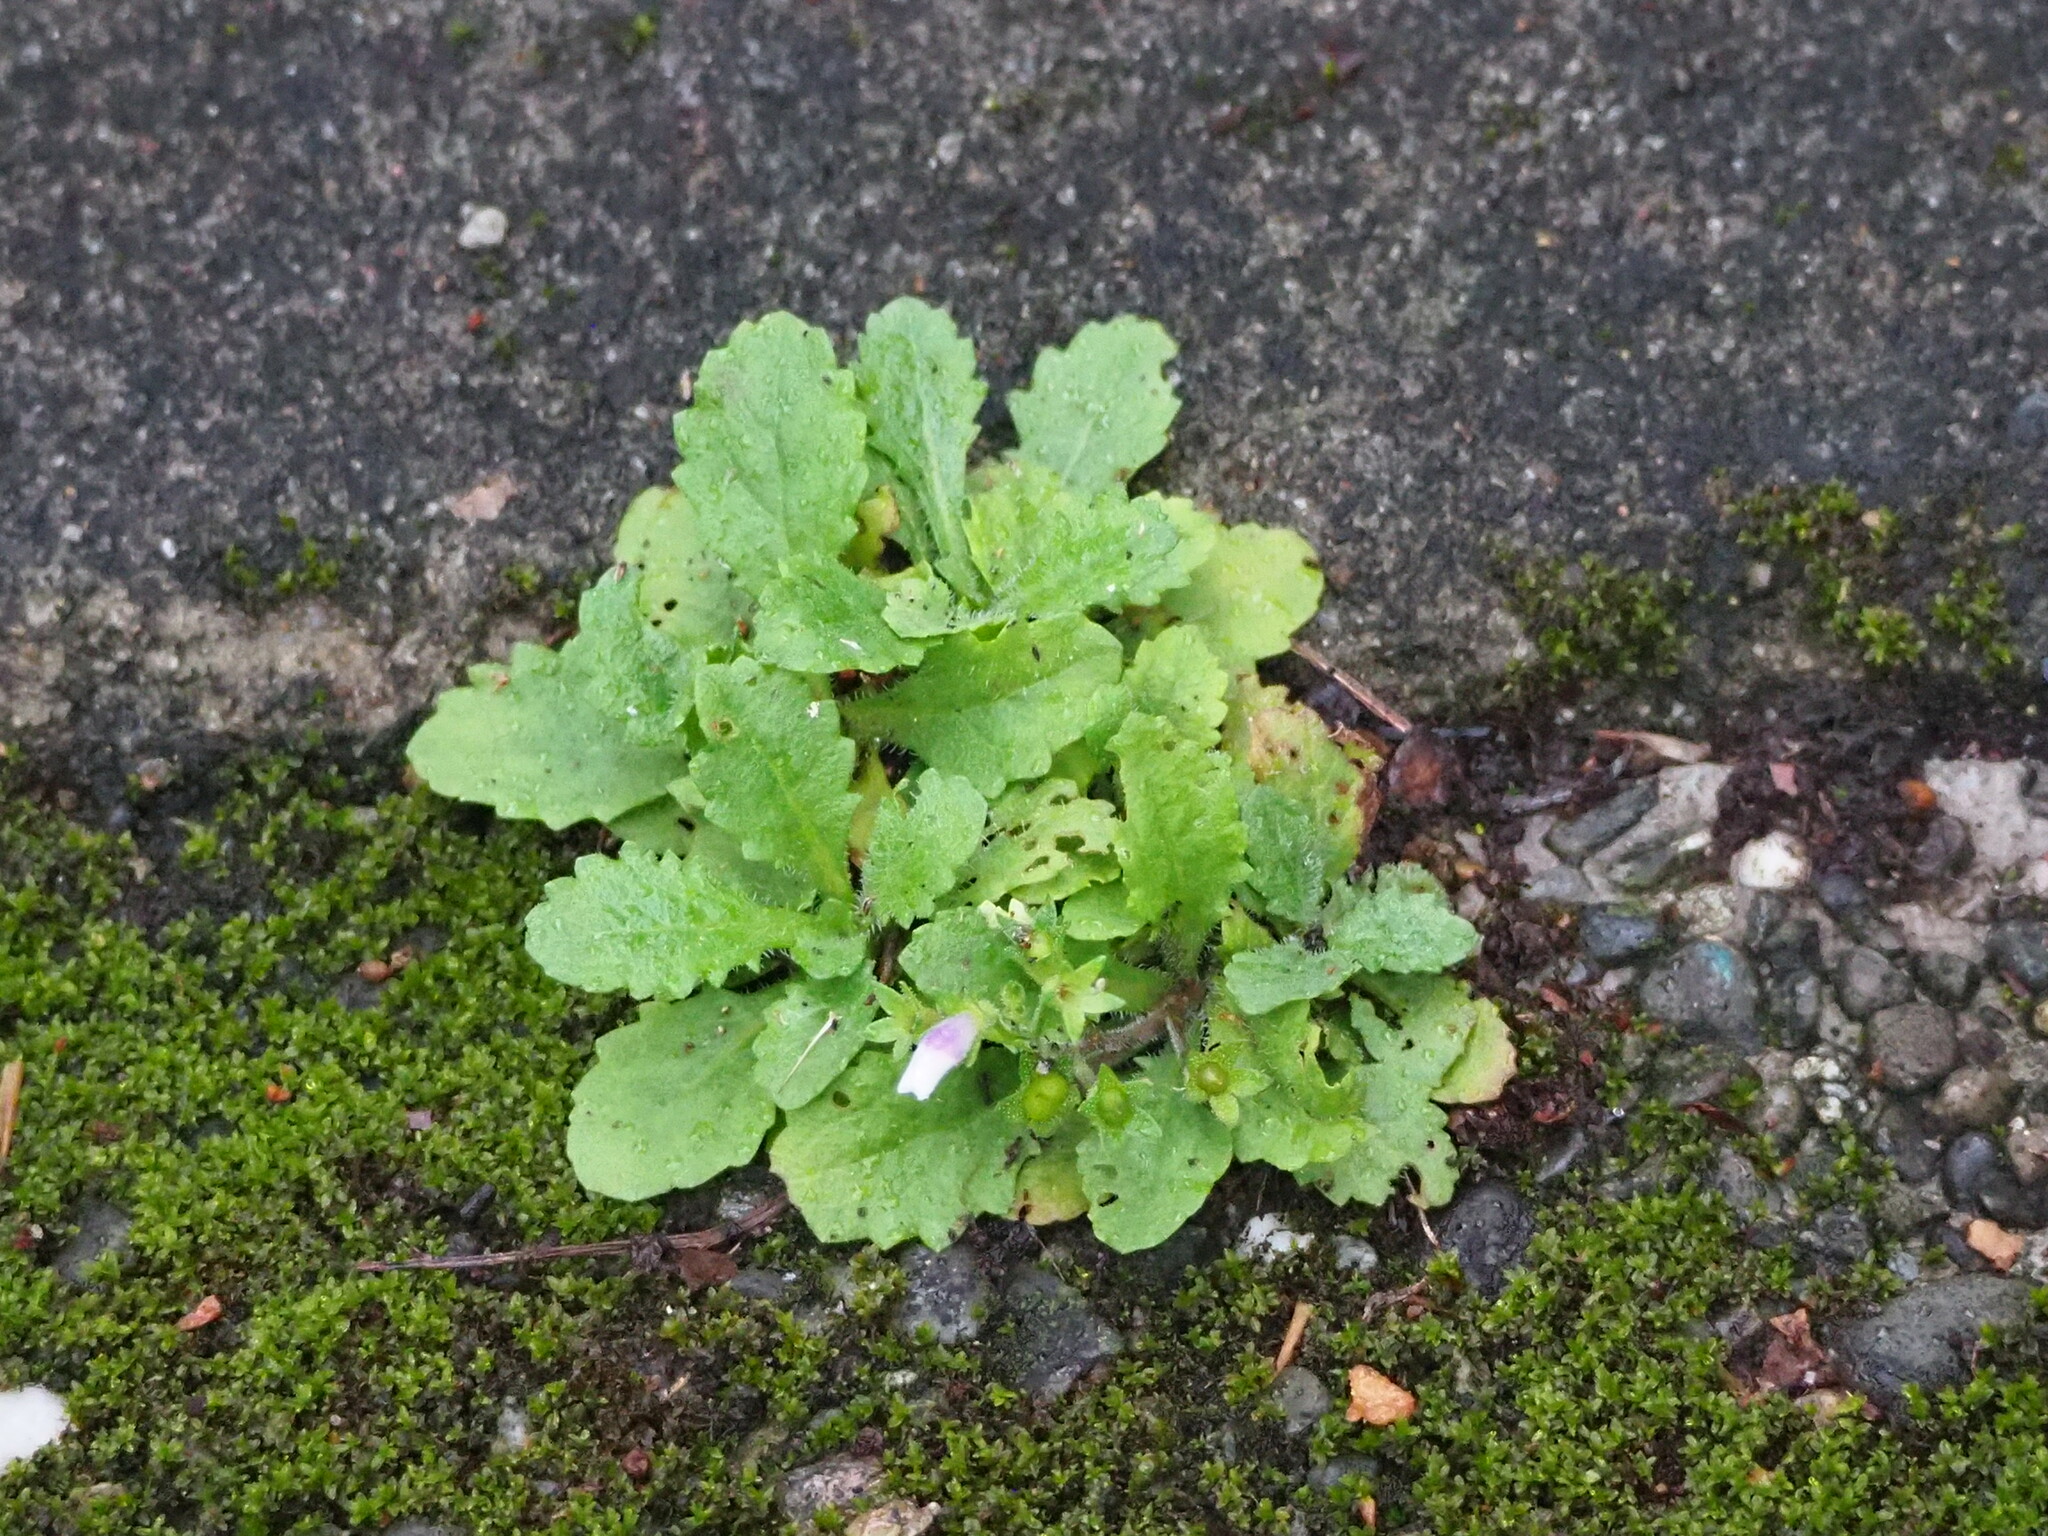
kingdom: Plantae
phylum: Tracheophyta
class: Magnoliopsida
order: Lamiales
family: Mazaceae
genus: Mazus
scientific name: Mazus fauriei
